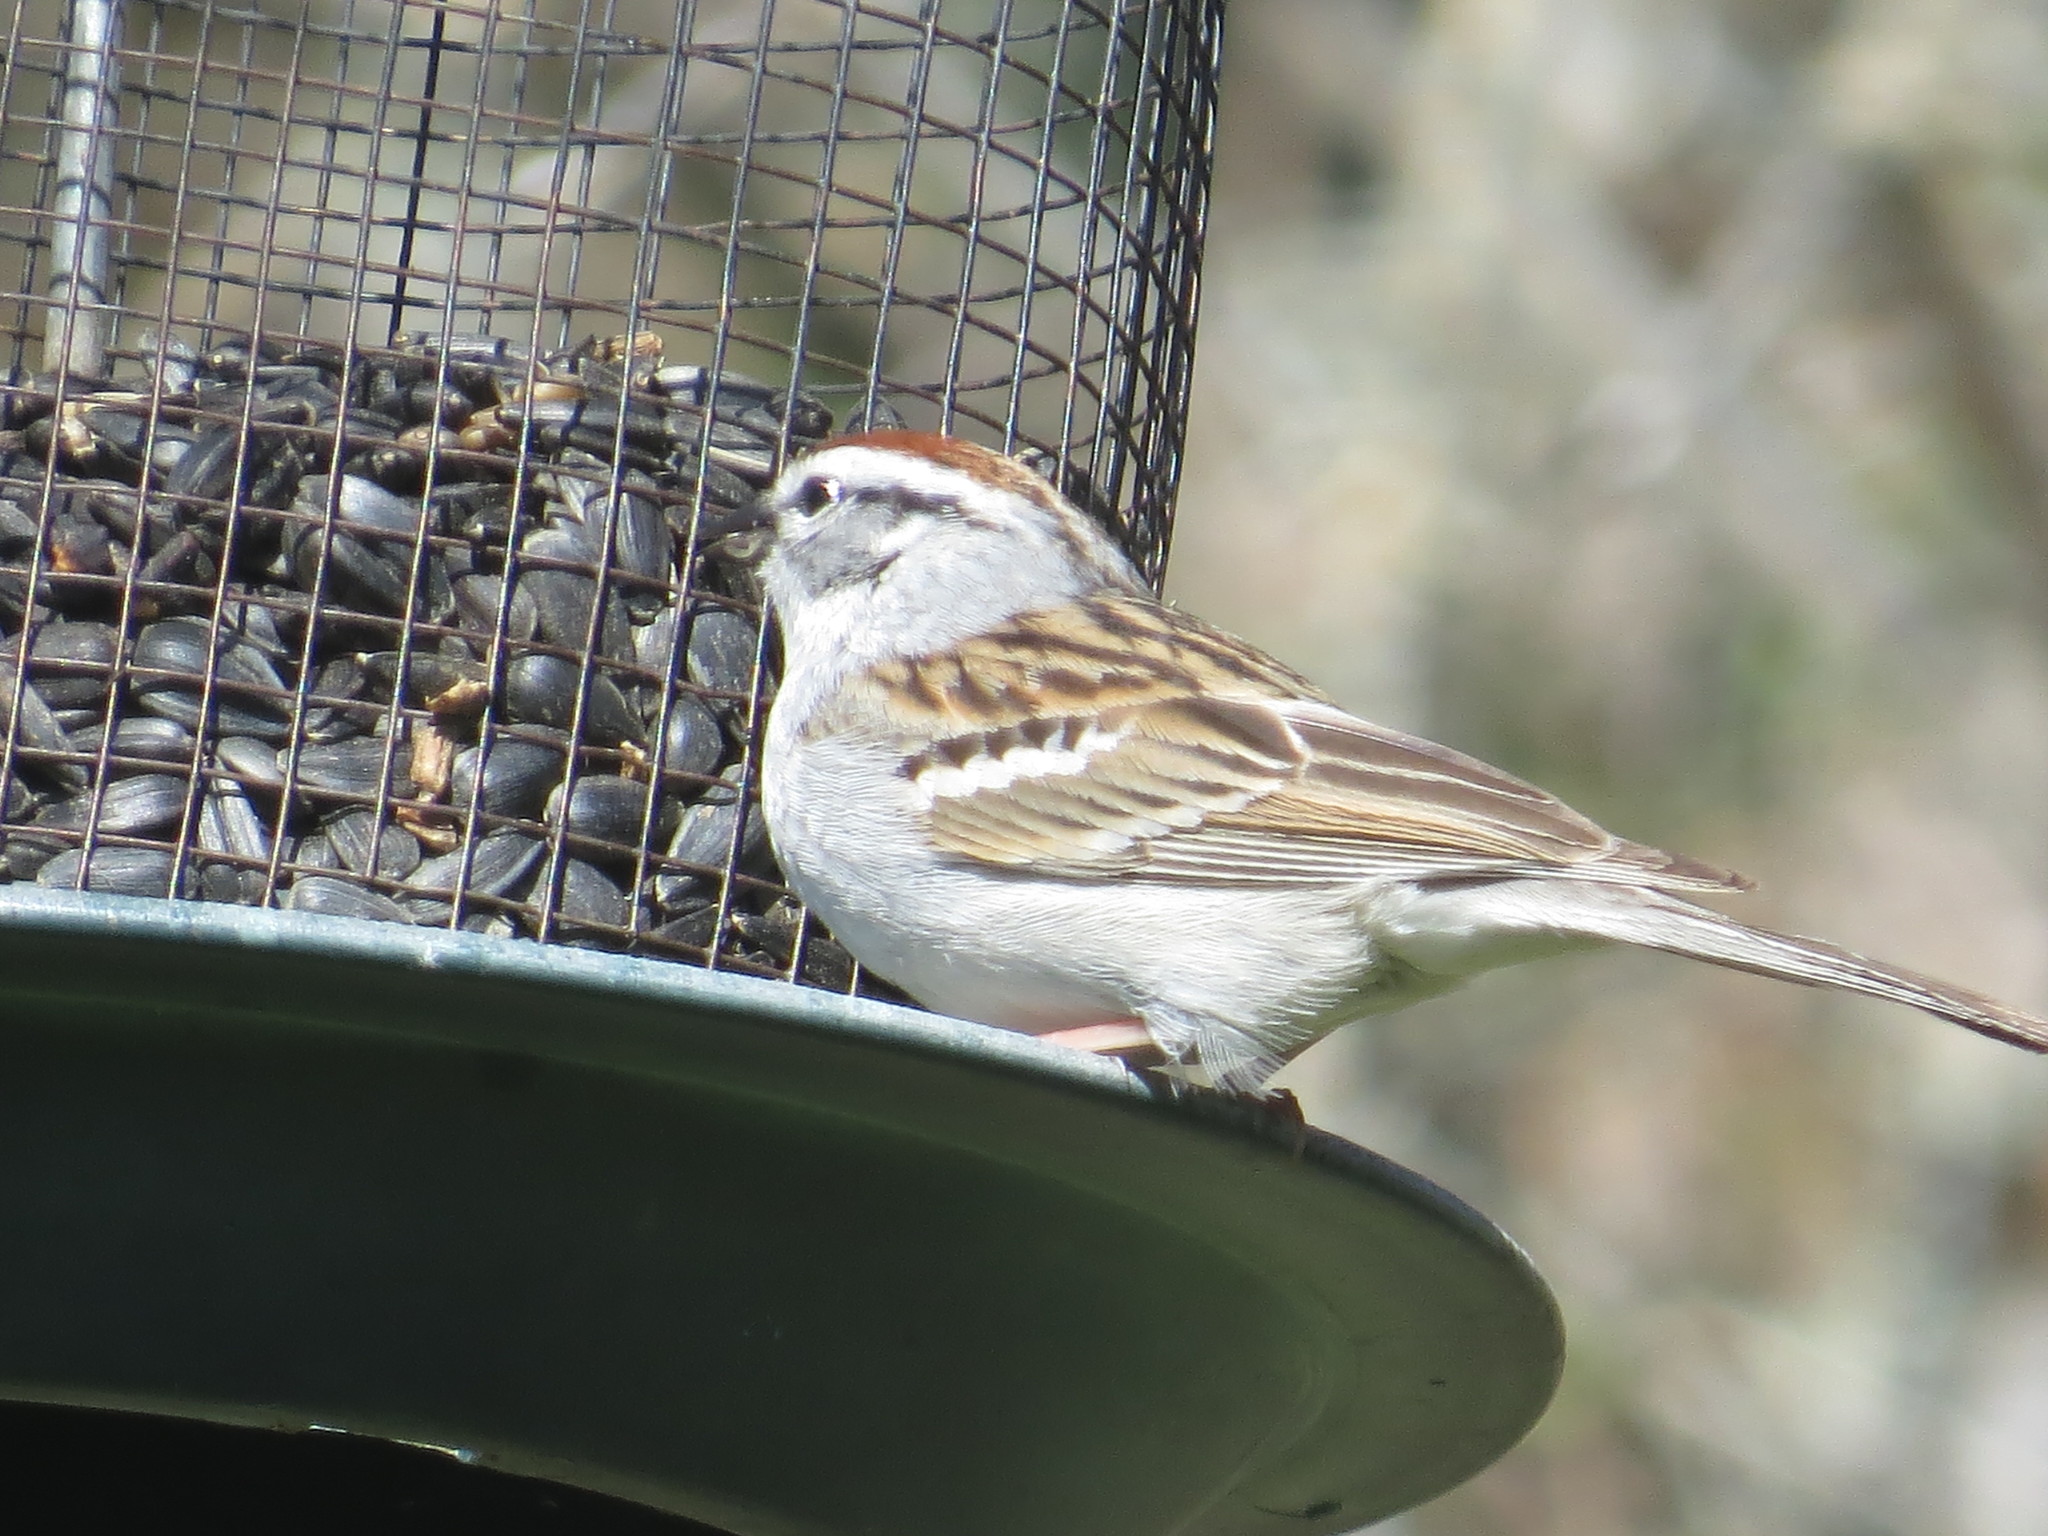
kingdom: Animalia
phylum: Chordata
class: Aves
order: Passeriformes
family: Passerellidae
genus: Spizella
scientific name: Spizella passerina
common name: Chipping sparrow
